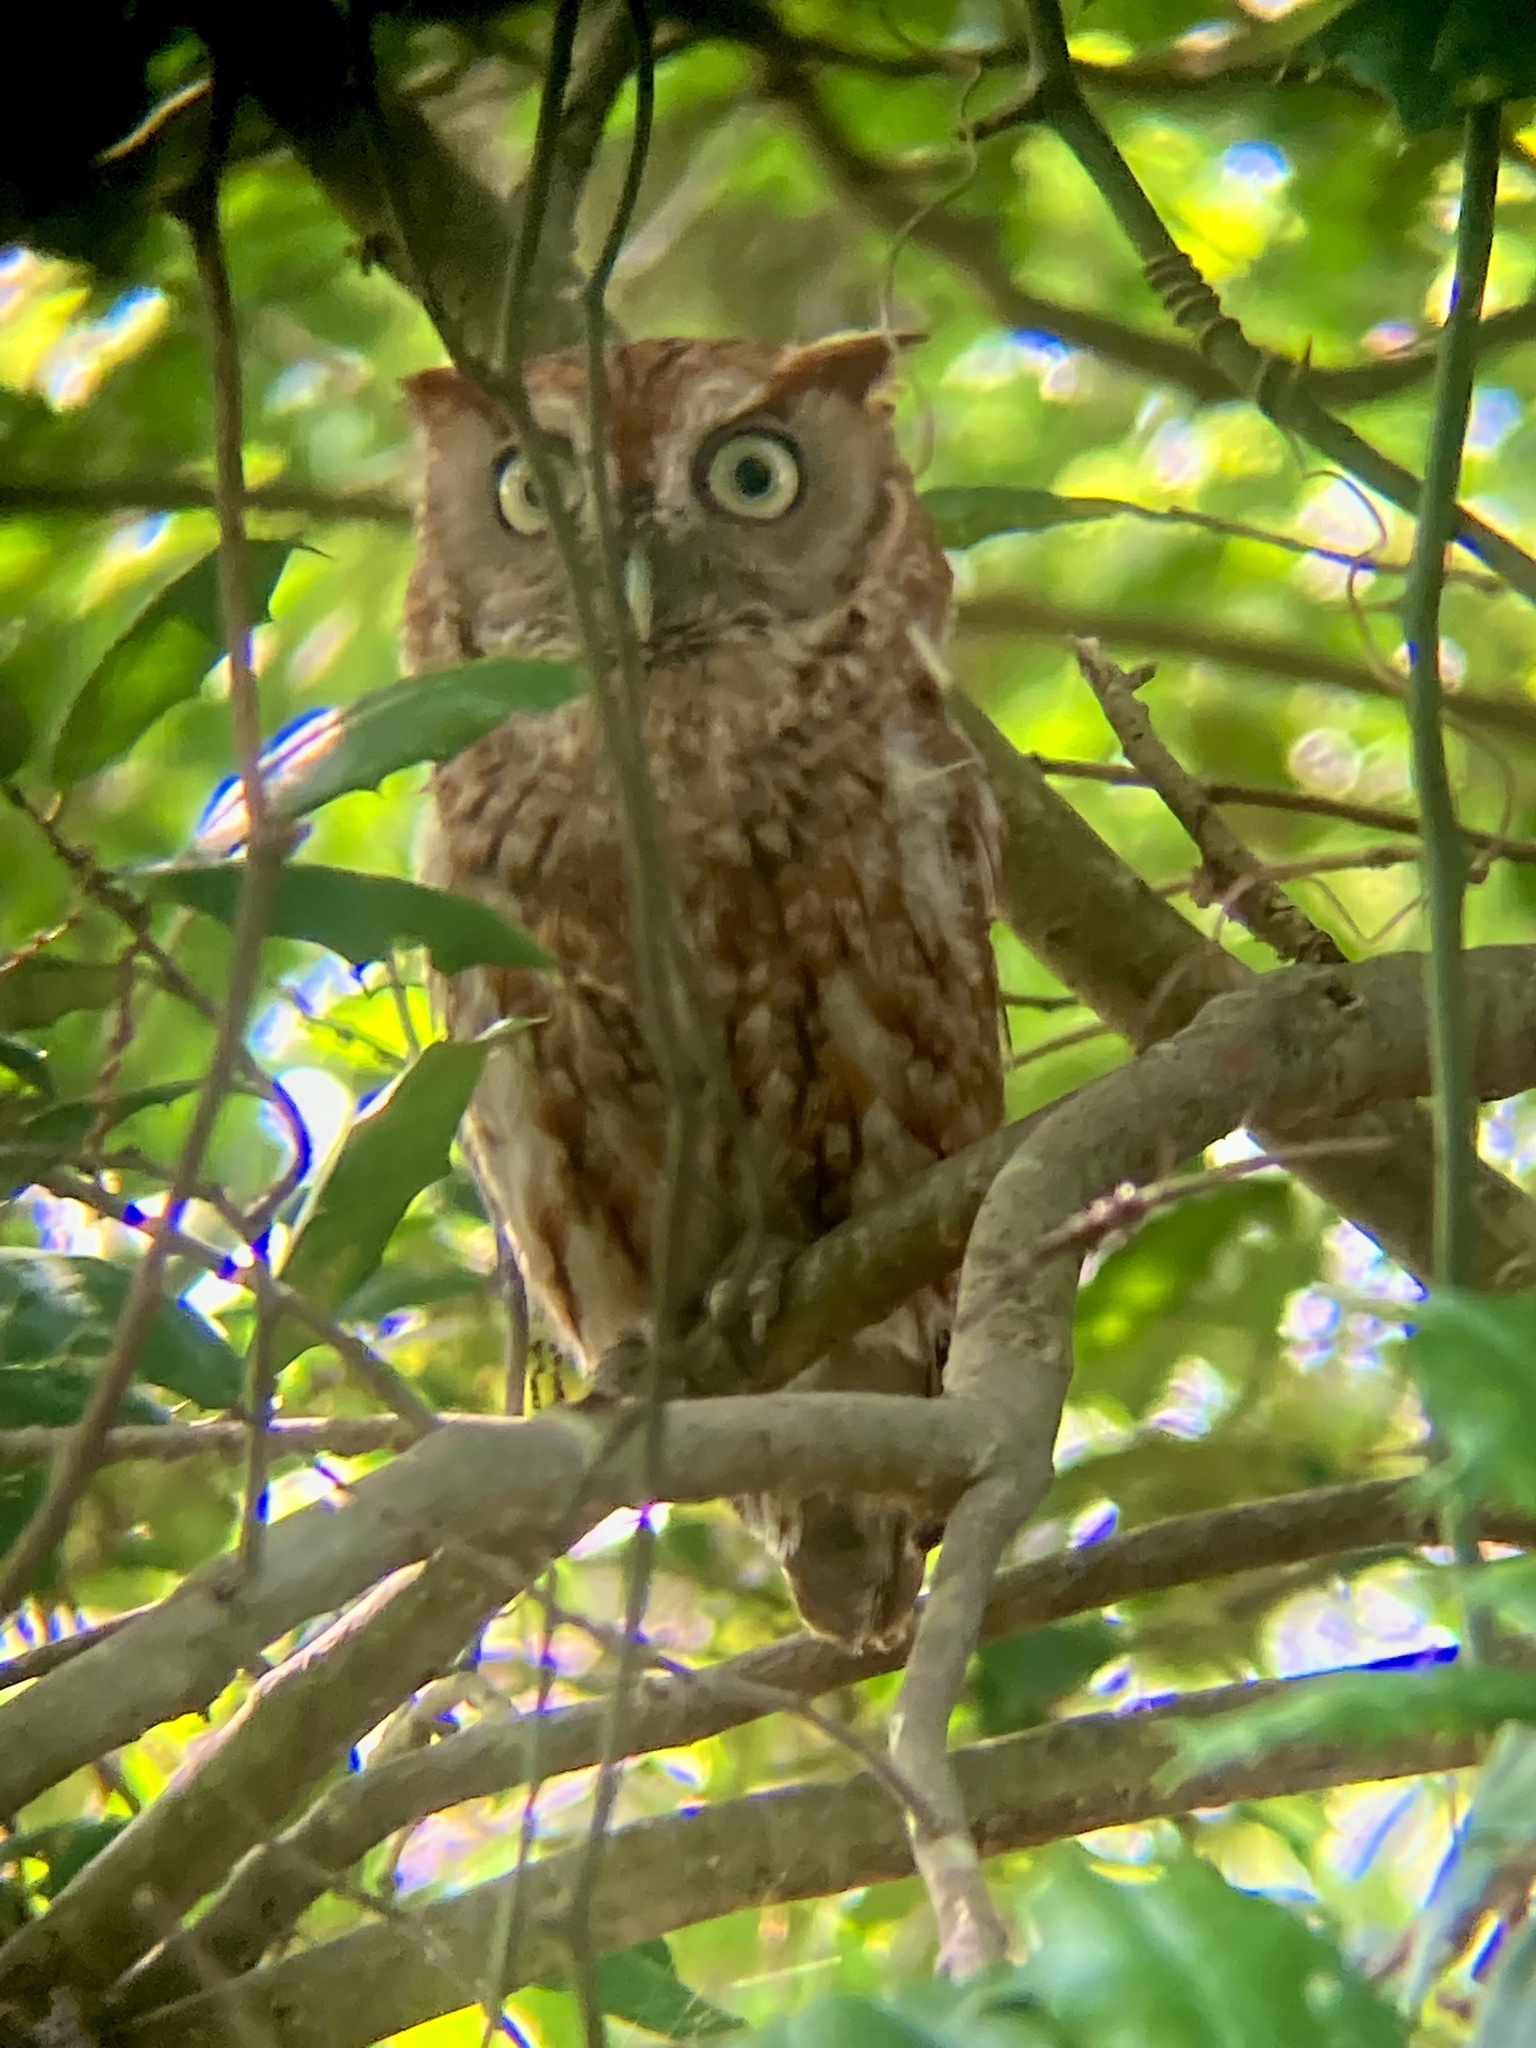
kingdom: Animalia
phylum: Chordata
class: Aves
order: Strigiformes
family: Strigidae
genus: Megascops
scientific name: Megascops asio
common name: Eastern screech-owl
